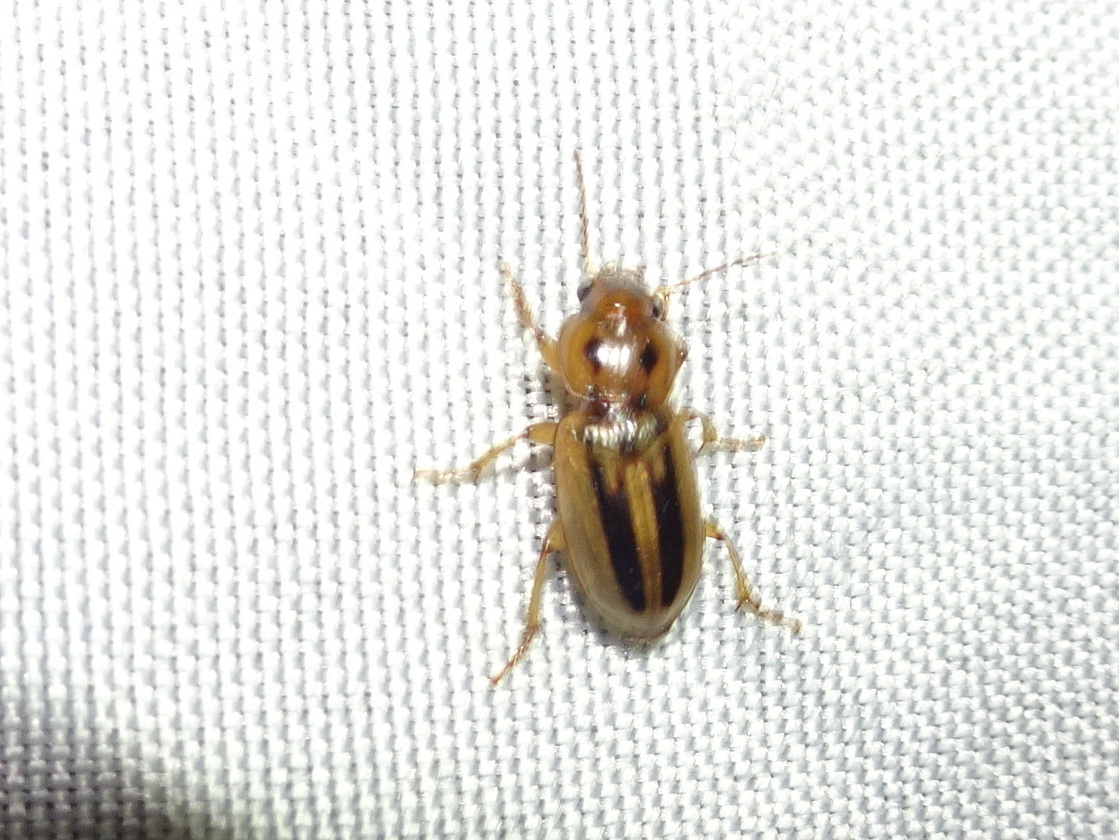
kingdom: Animalia
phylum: Arthropoda
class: Insecta
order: Coleoptera
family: Carabidae
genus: Stenolophus
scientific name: Stenolophus lineola
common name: Lined stenolophus
